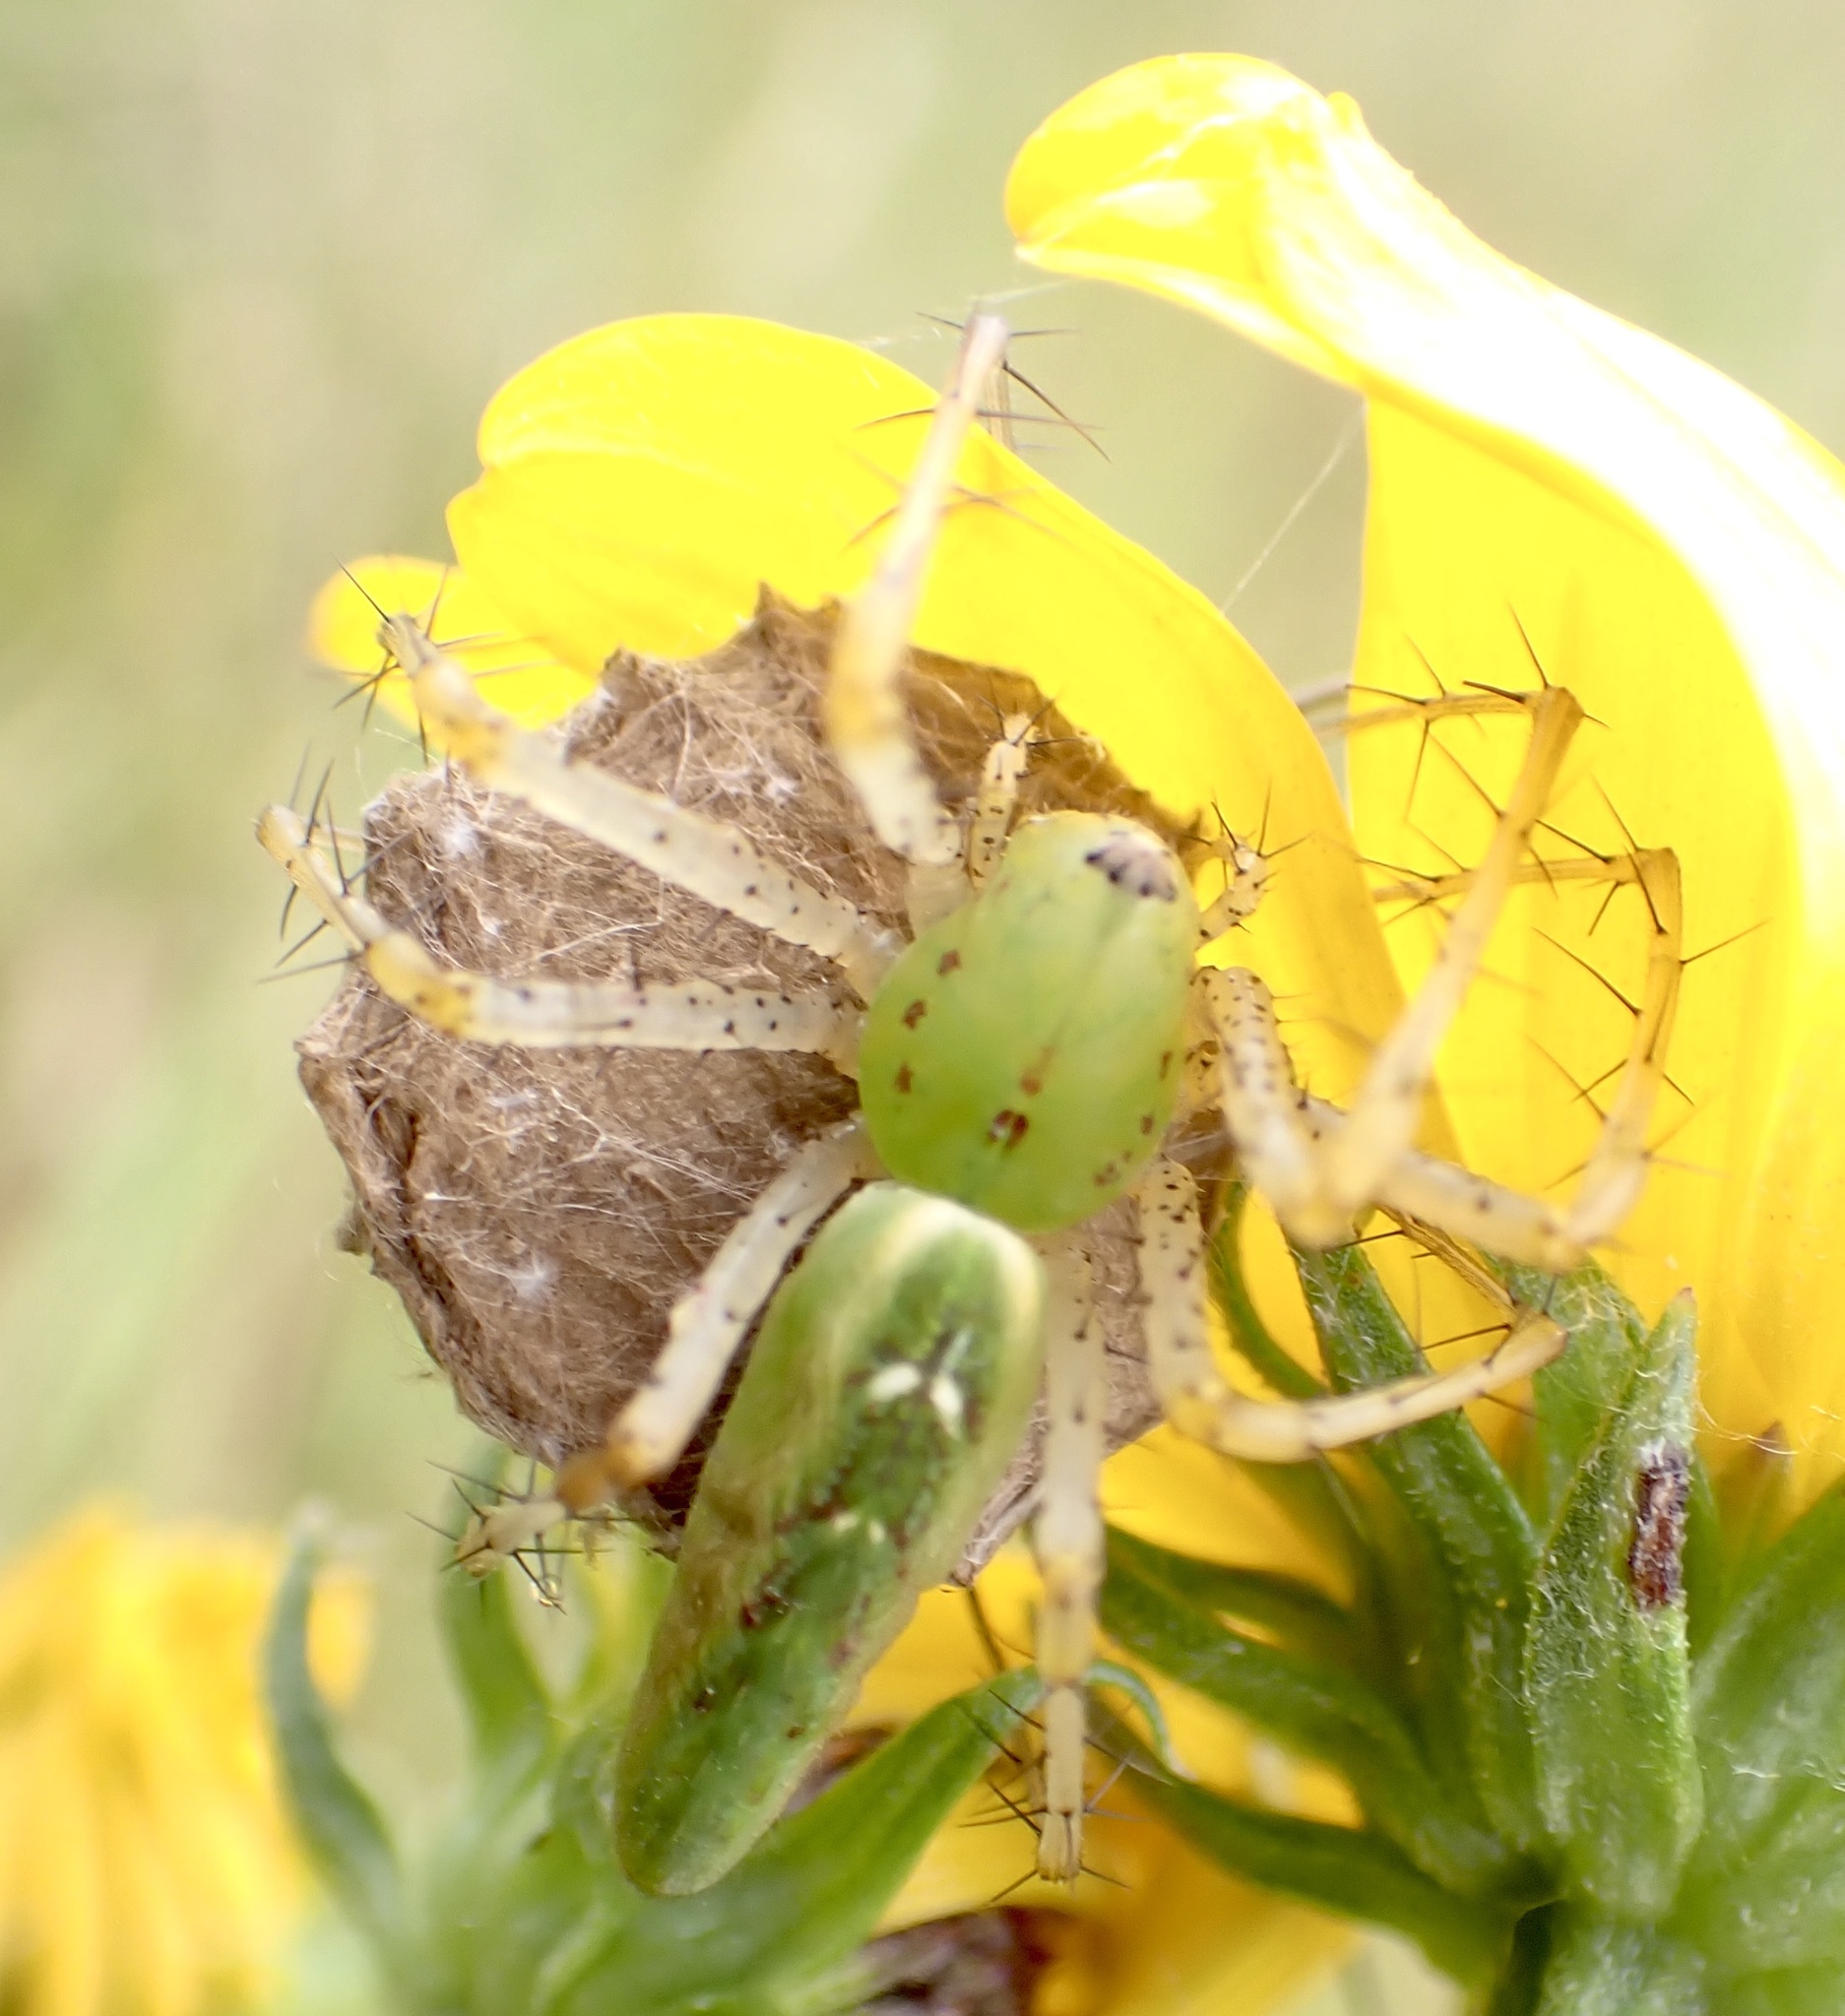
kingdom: Animalia
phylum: Arthropoda
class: Arachnida
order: Araneae
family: Oxyopidae
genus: Peucetia
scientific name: Peucetia viridans
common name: Lynx spiders
